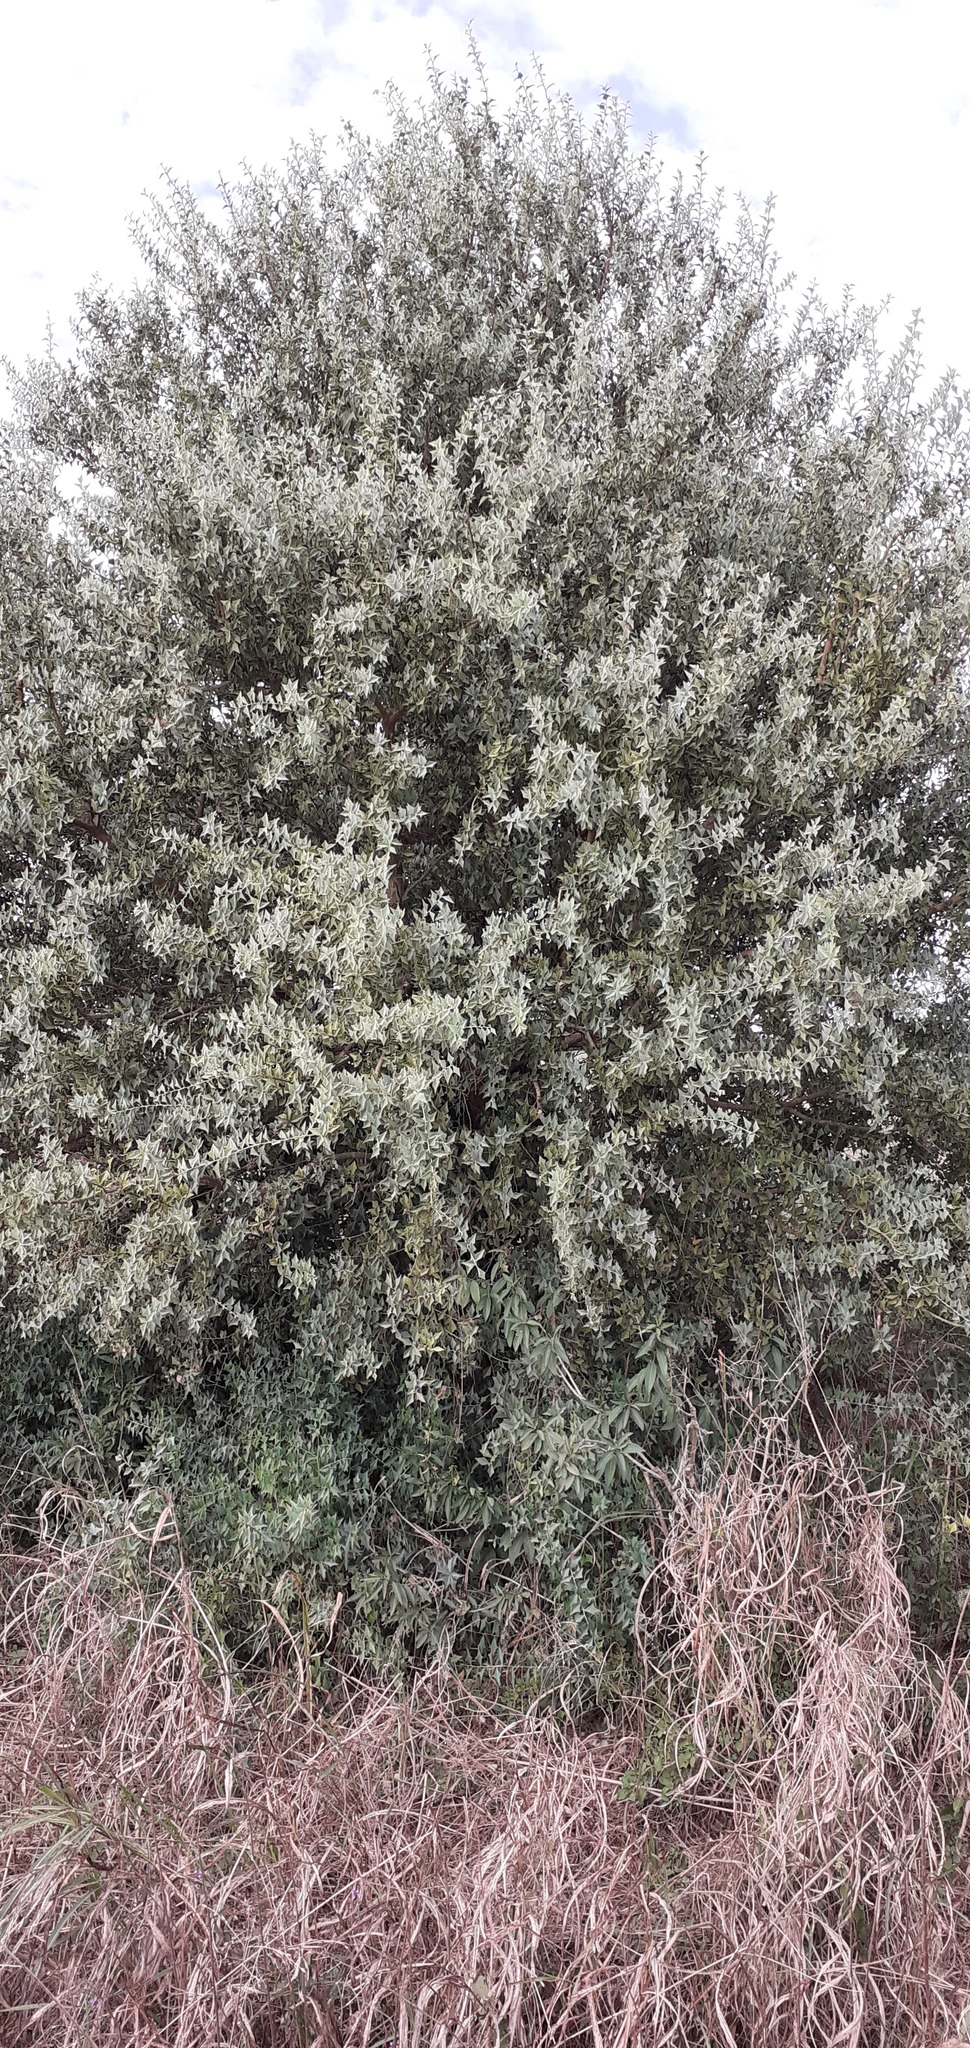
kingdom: Plantae
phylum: Tracheophyta
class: Magnoliopsida
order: Santalales
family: Cervantesiaceae
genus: Jodina
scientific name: Jodina rhombifolia
